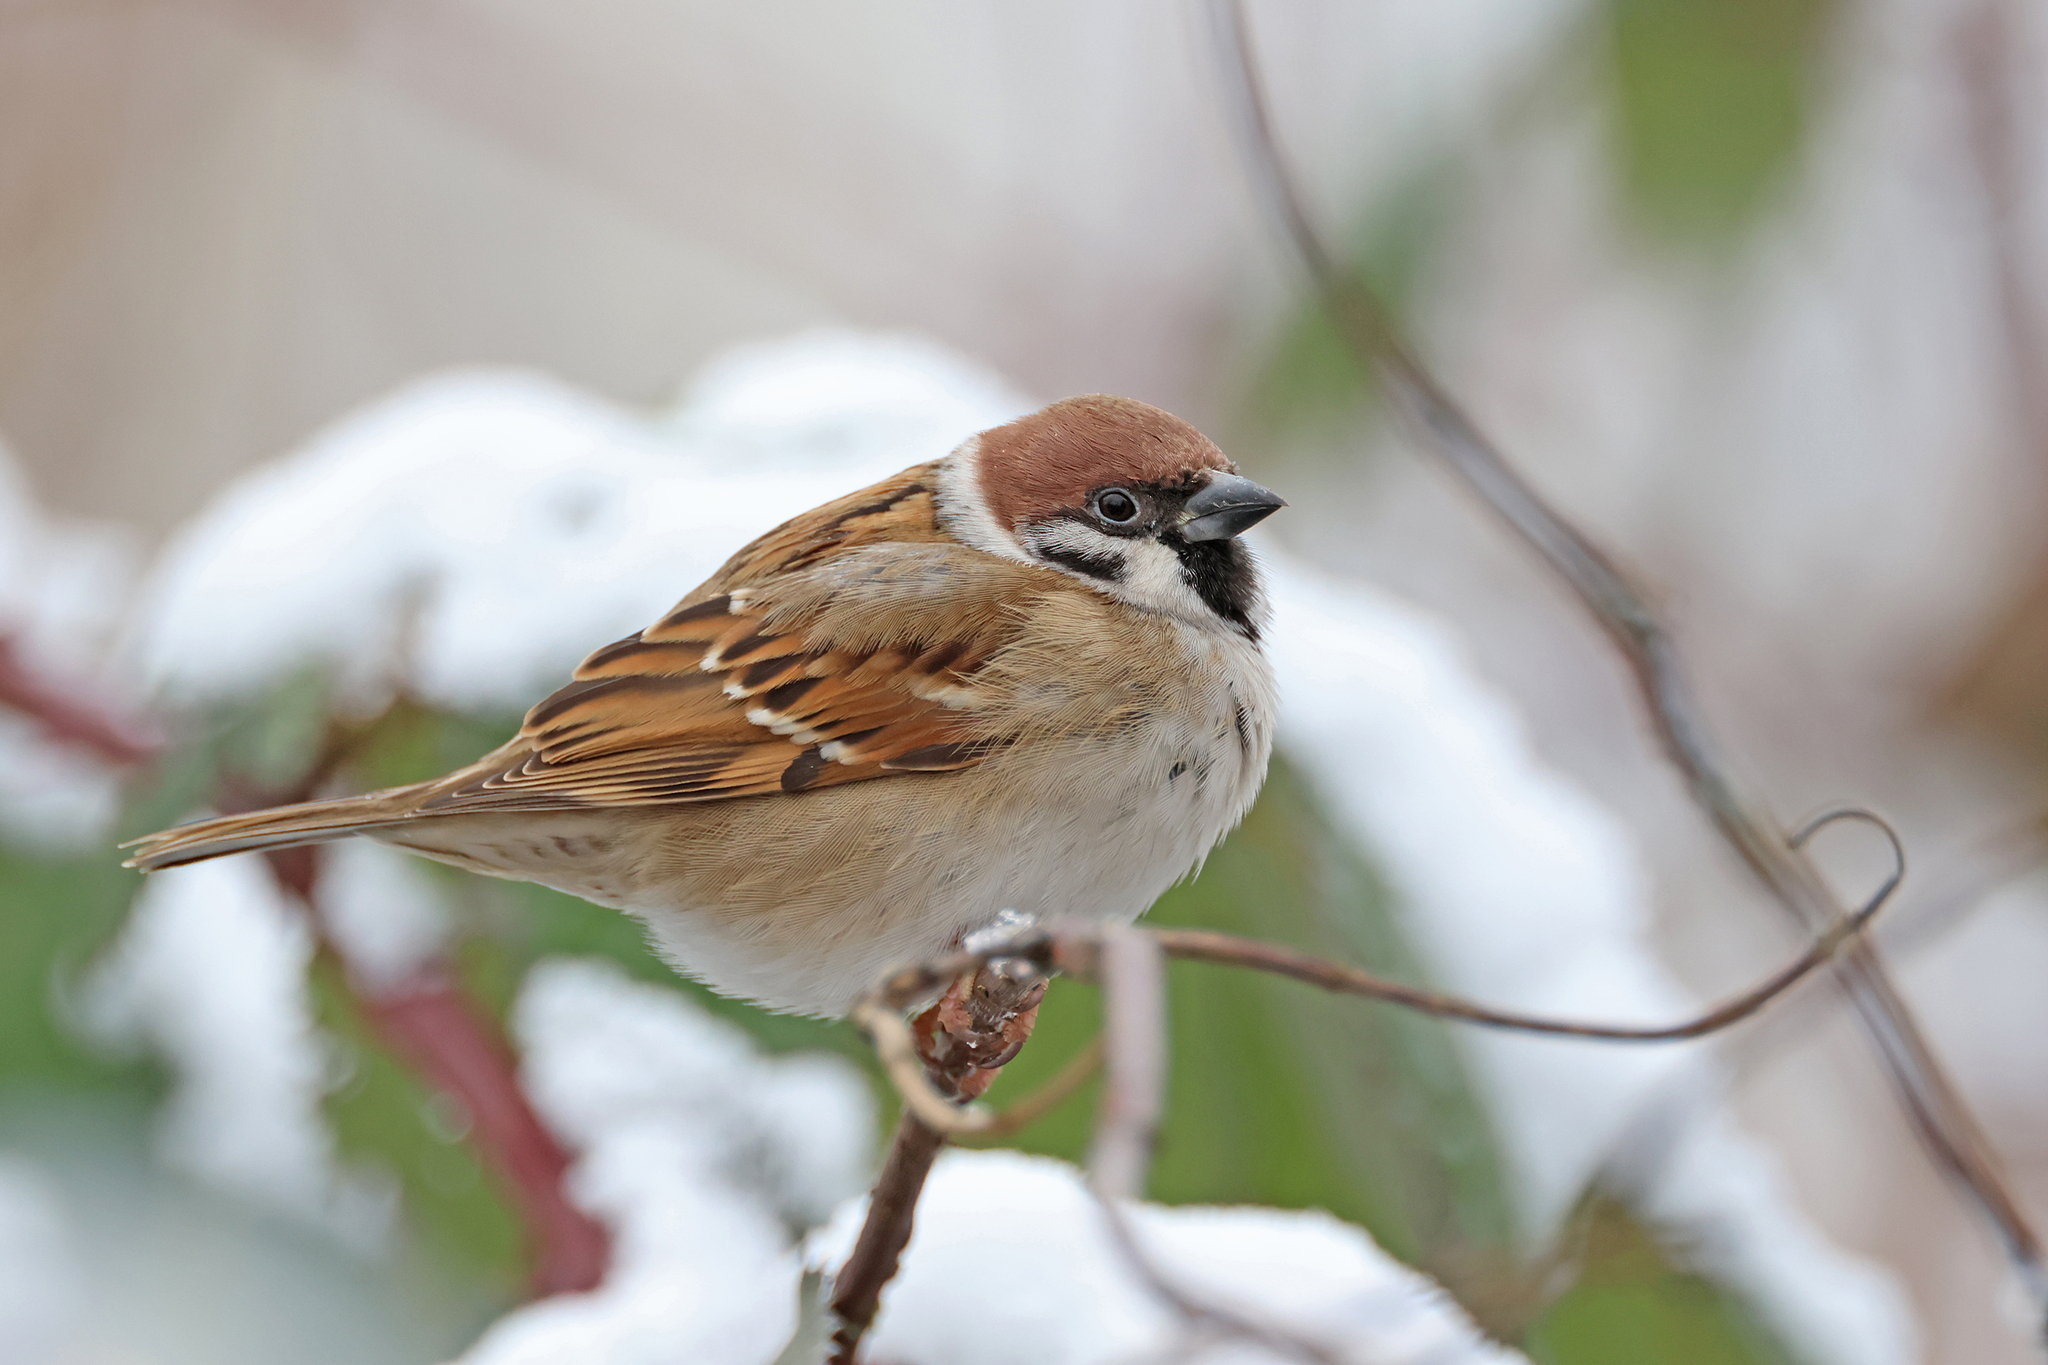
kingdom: Animalia
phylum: Chordata
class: Aves
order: Passeriformes
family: Passeridae
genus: Passer
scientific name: Passer montanus
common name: Eurasian tree sparrow
